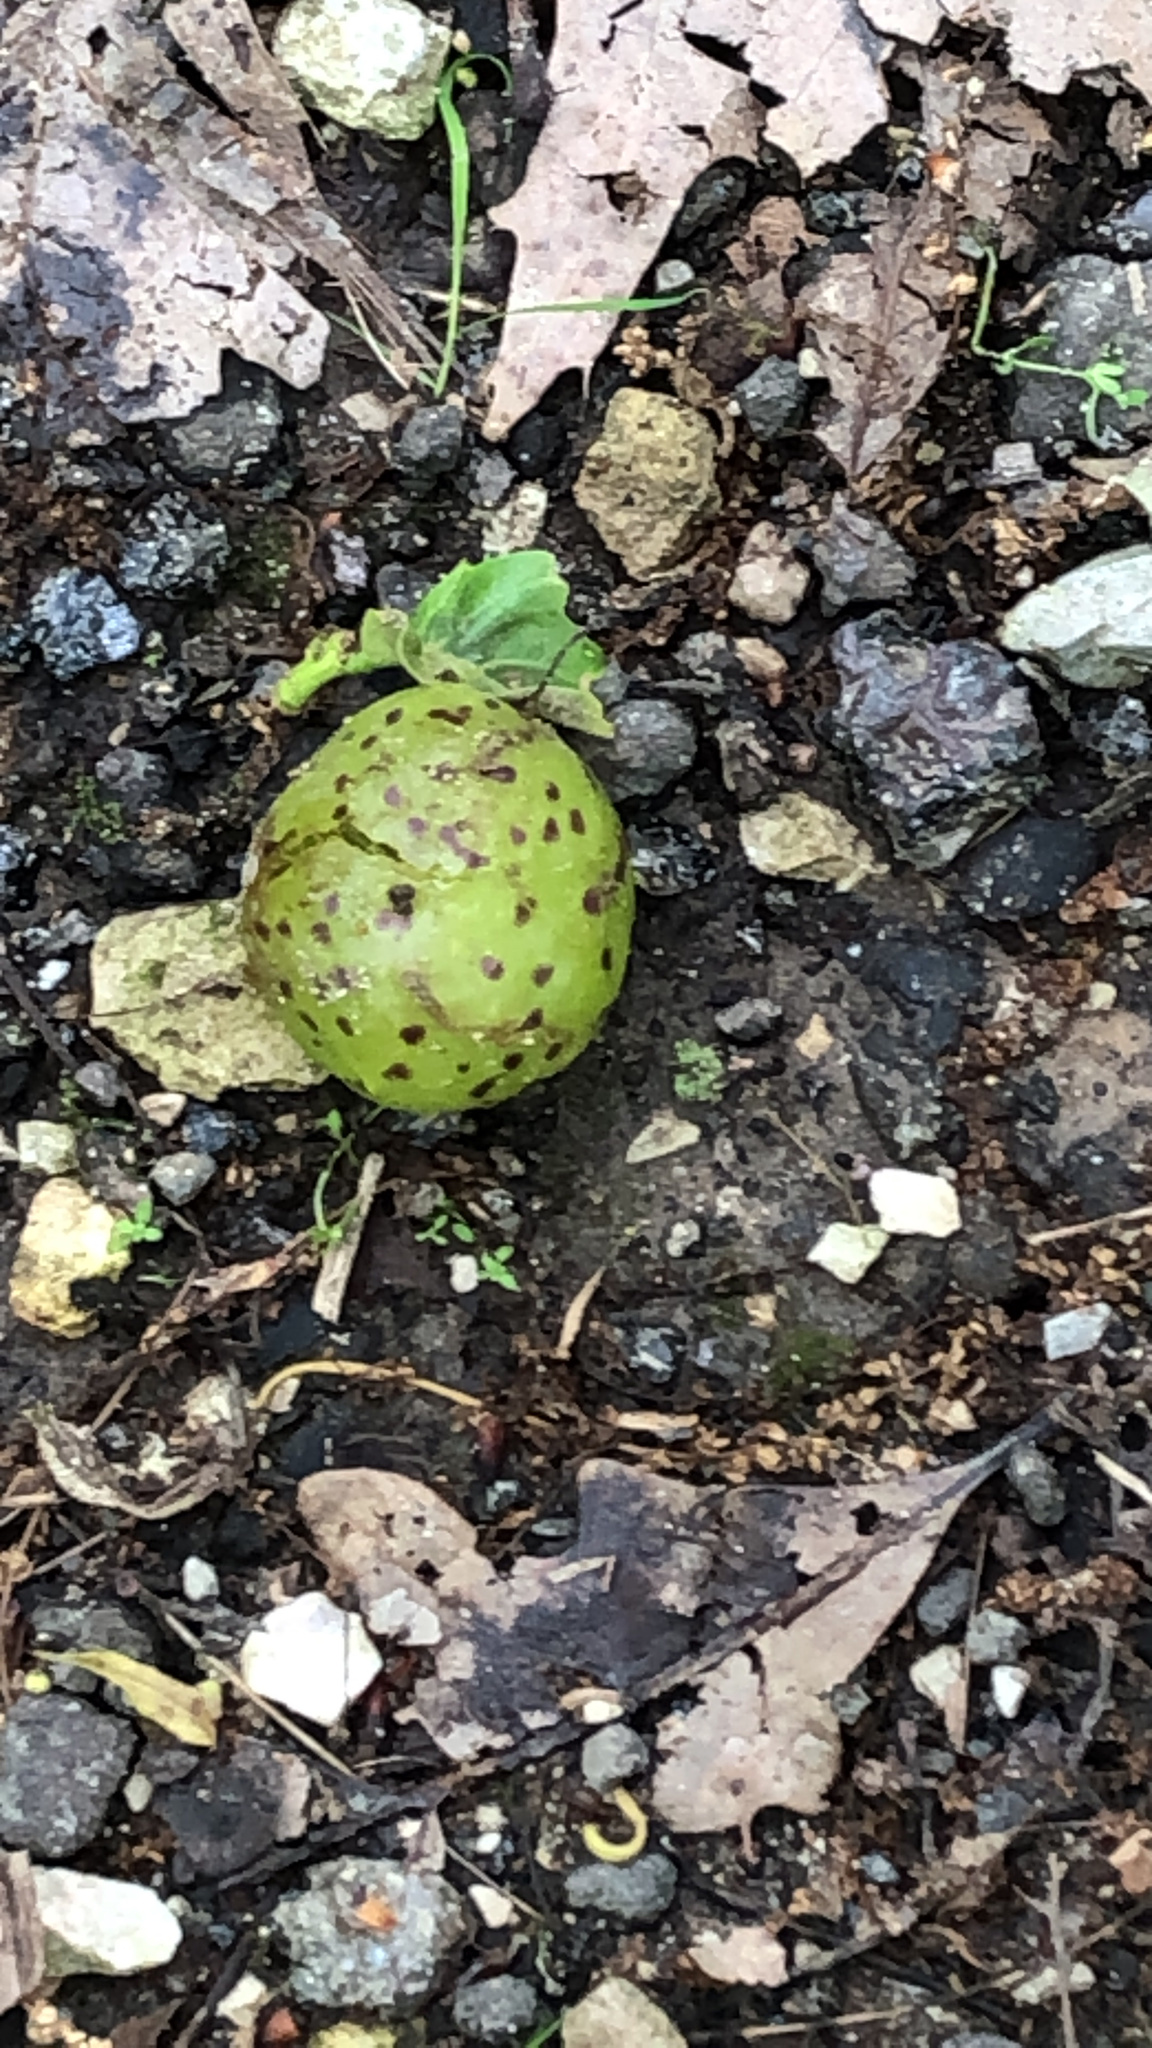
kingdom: Animalia
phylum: Arthropoda
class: Insecta
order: Hymenoptera
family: Cynipidae
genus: Amphibolips
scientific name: Amphibolips
